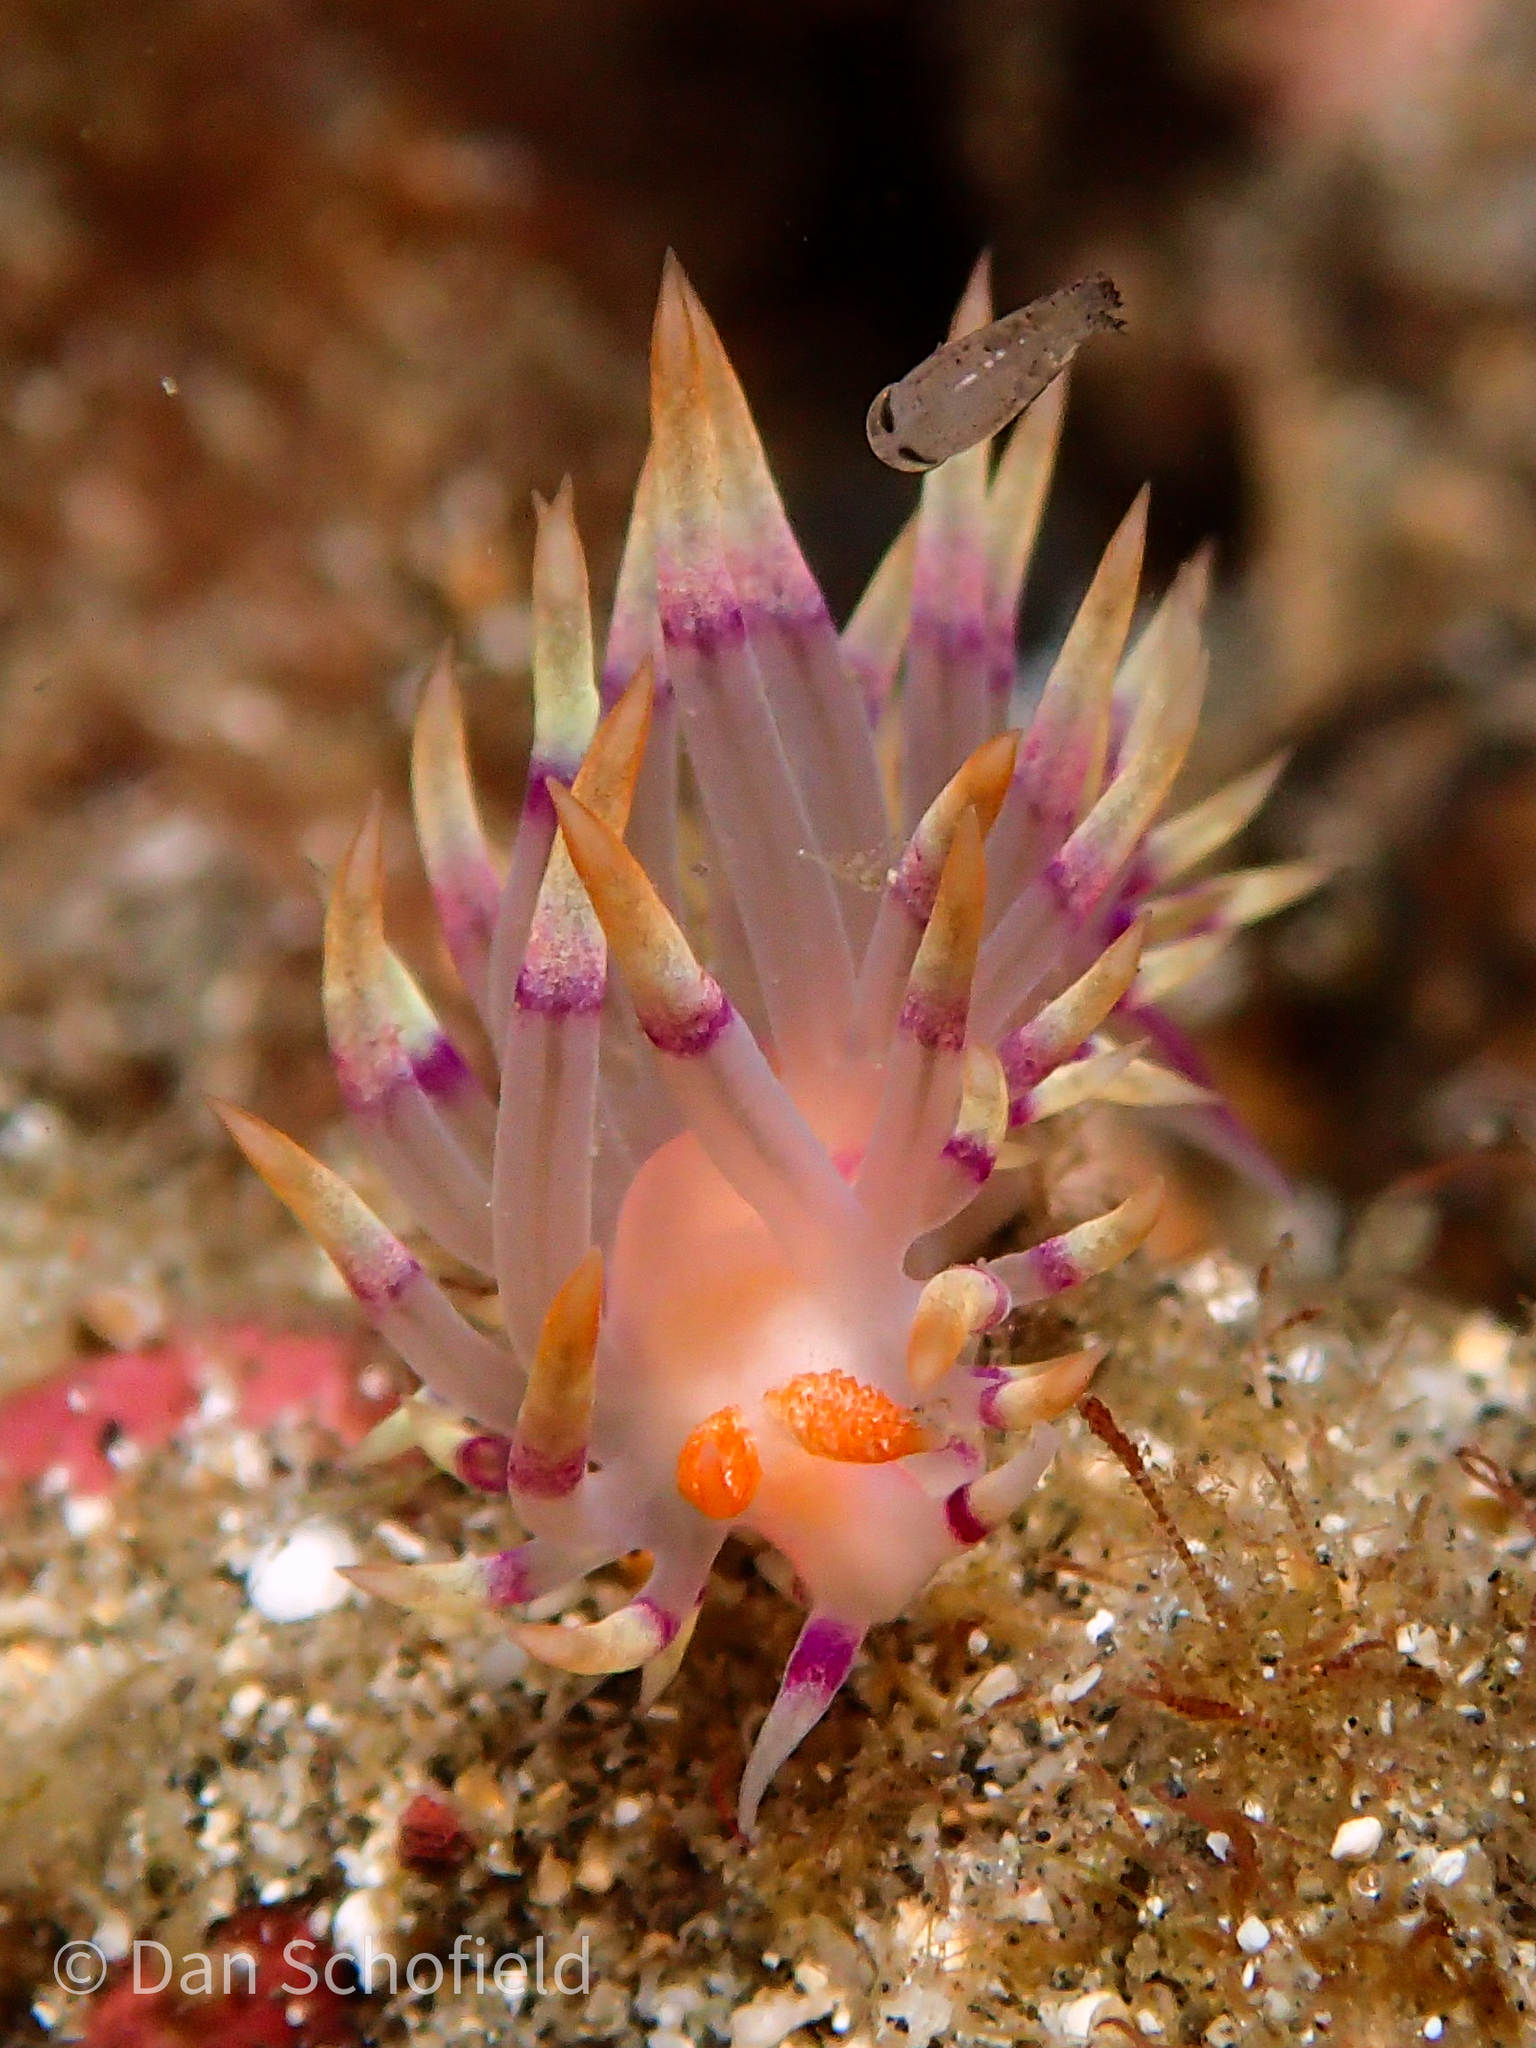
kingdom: Animalia
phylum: Mollusca
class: Gastropoda
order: Nudibranchia
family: Flabellinidae
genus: Coryphellina
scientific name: Coryphellina exoptata
